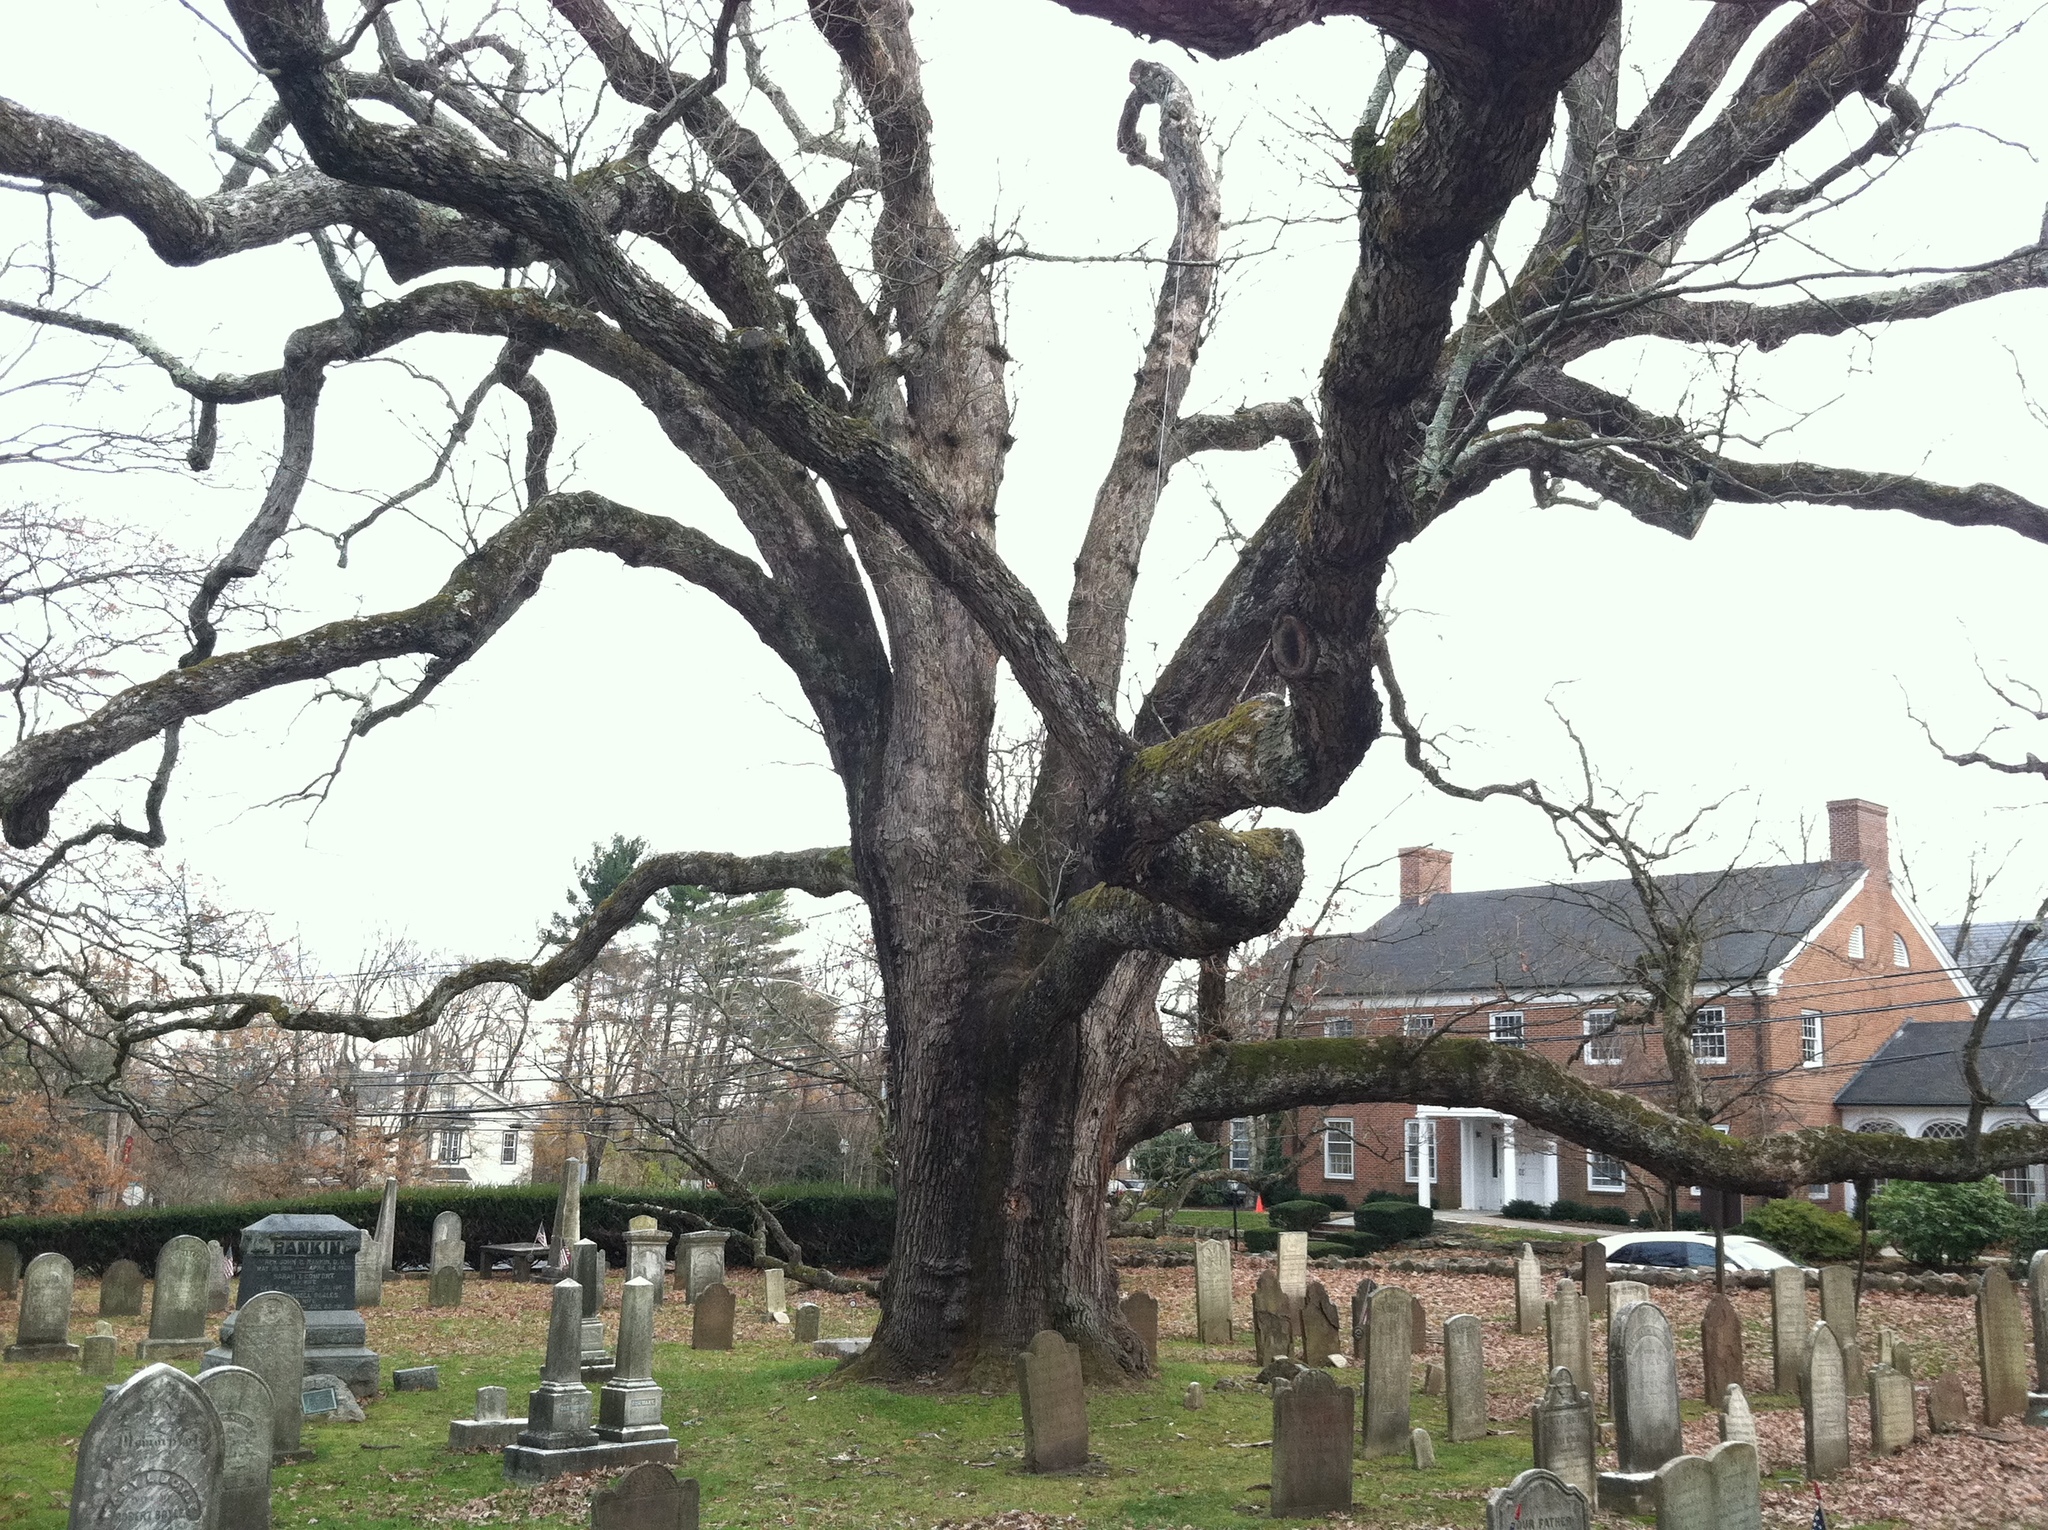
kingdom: Plantae
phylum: Tracheophyta
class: Magnoliopsida
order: Fagales
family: Fagaceae
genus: Quercus
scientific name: Quercus alba
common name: White oak
